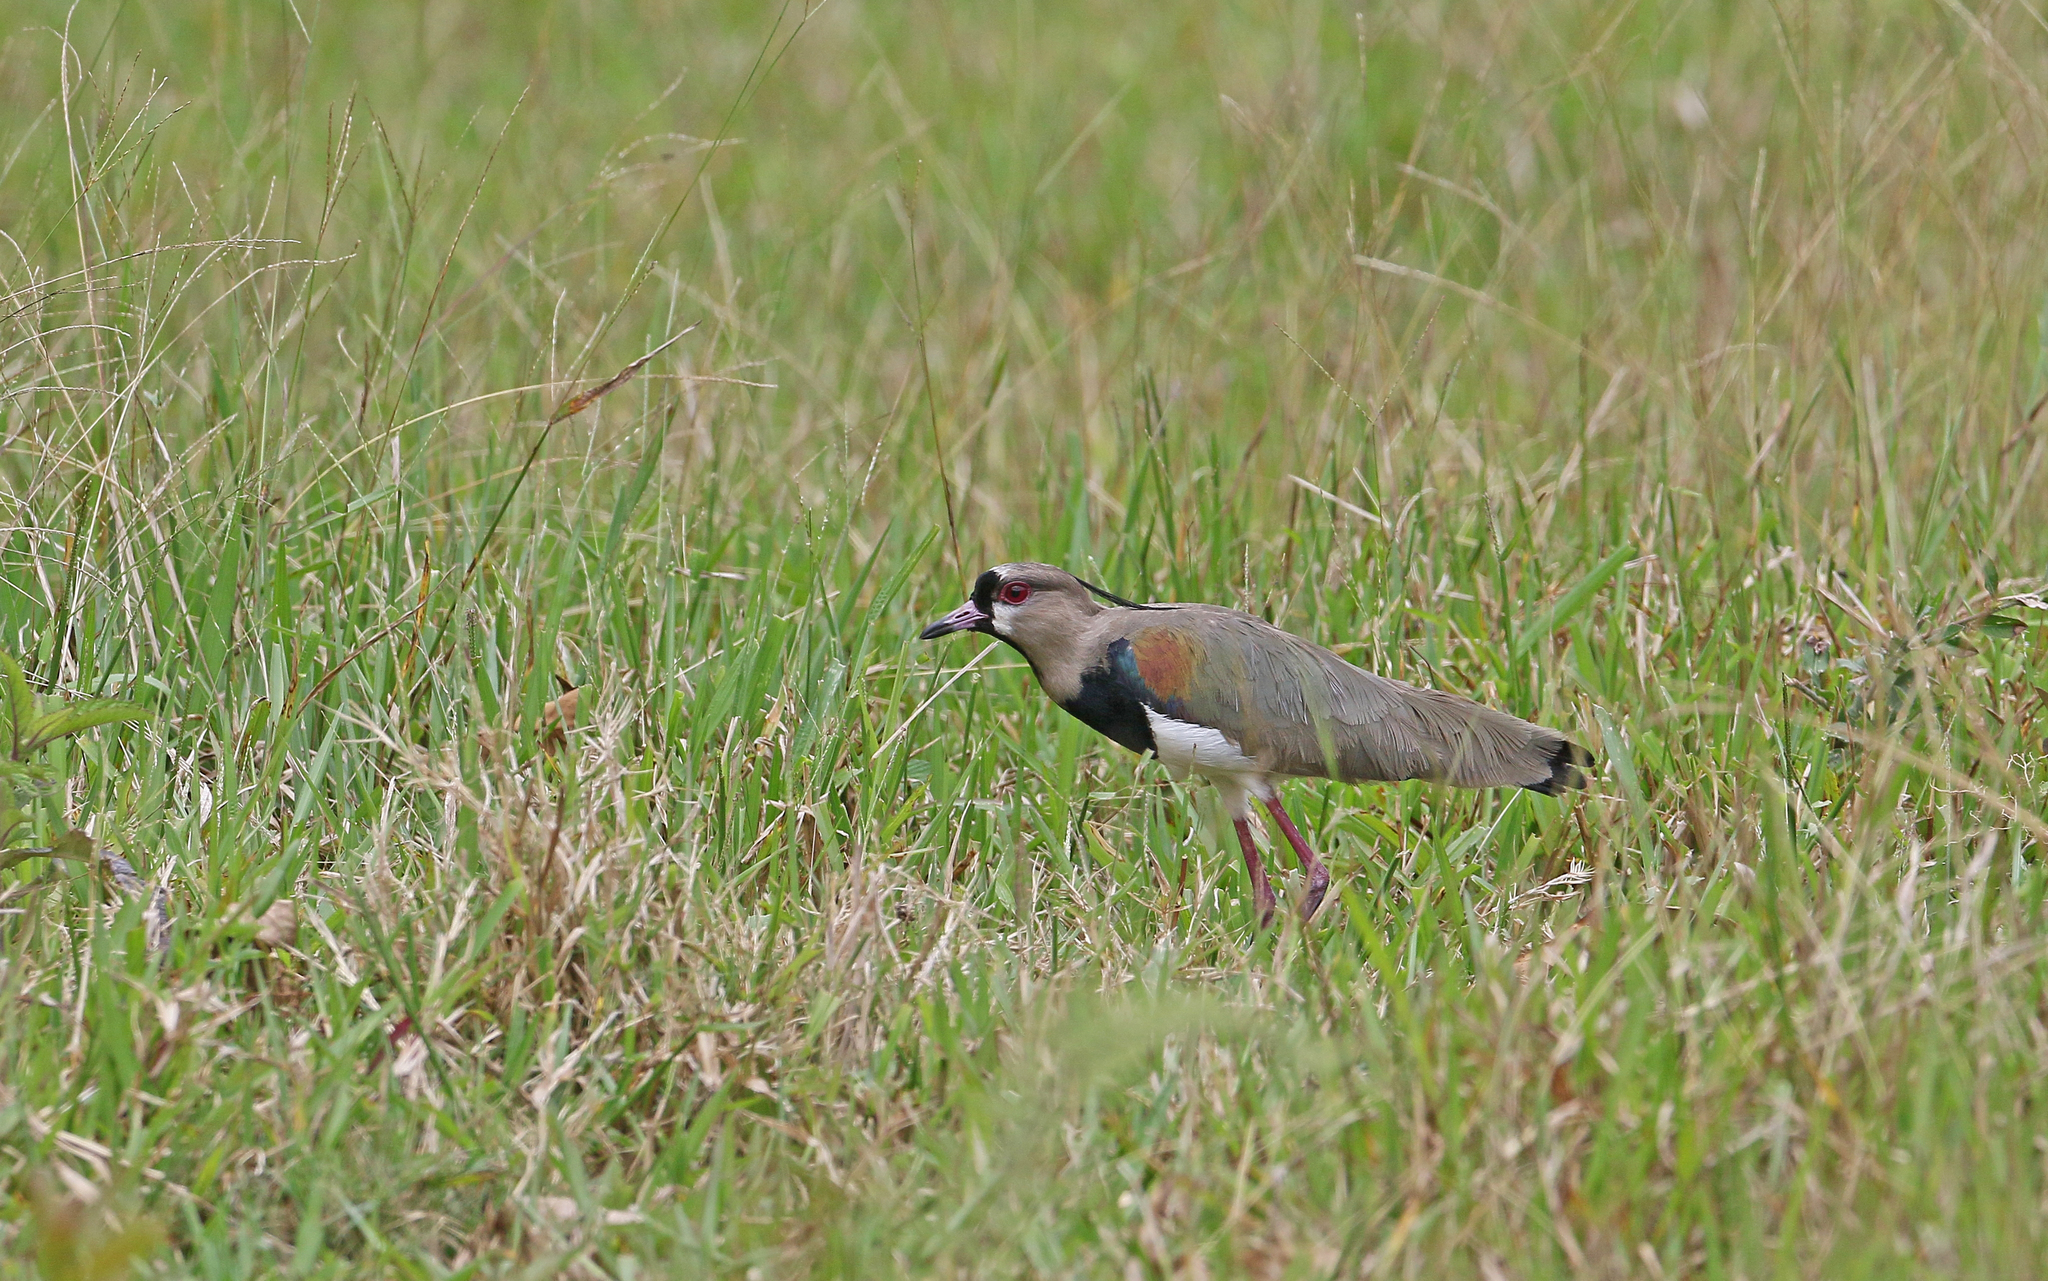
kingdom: Animalia
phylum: Chordata
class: Aves
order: Charadriiformes
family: Charadriidae
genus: Vanellus
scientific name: Vanellus chilensis
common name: Southern lapwing
